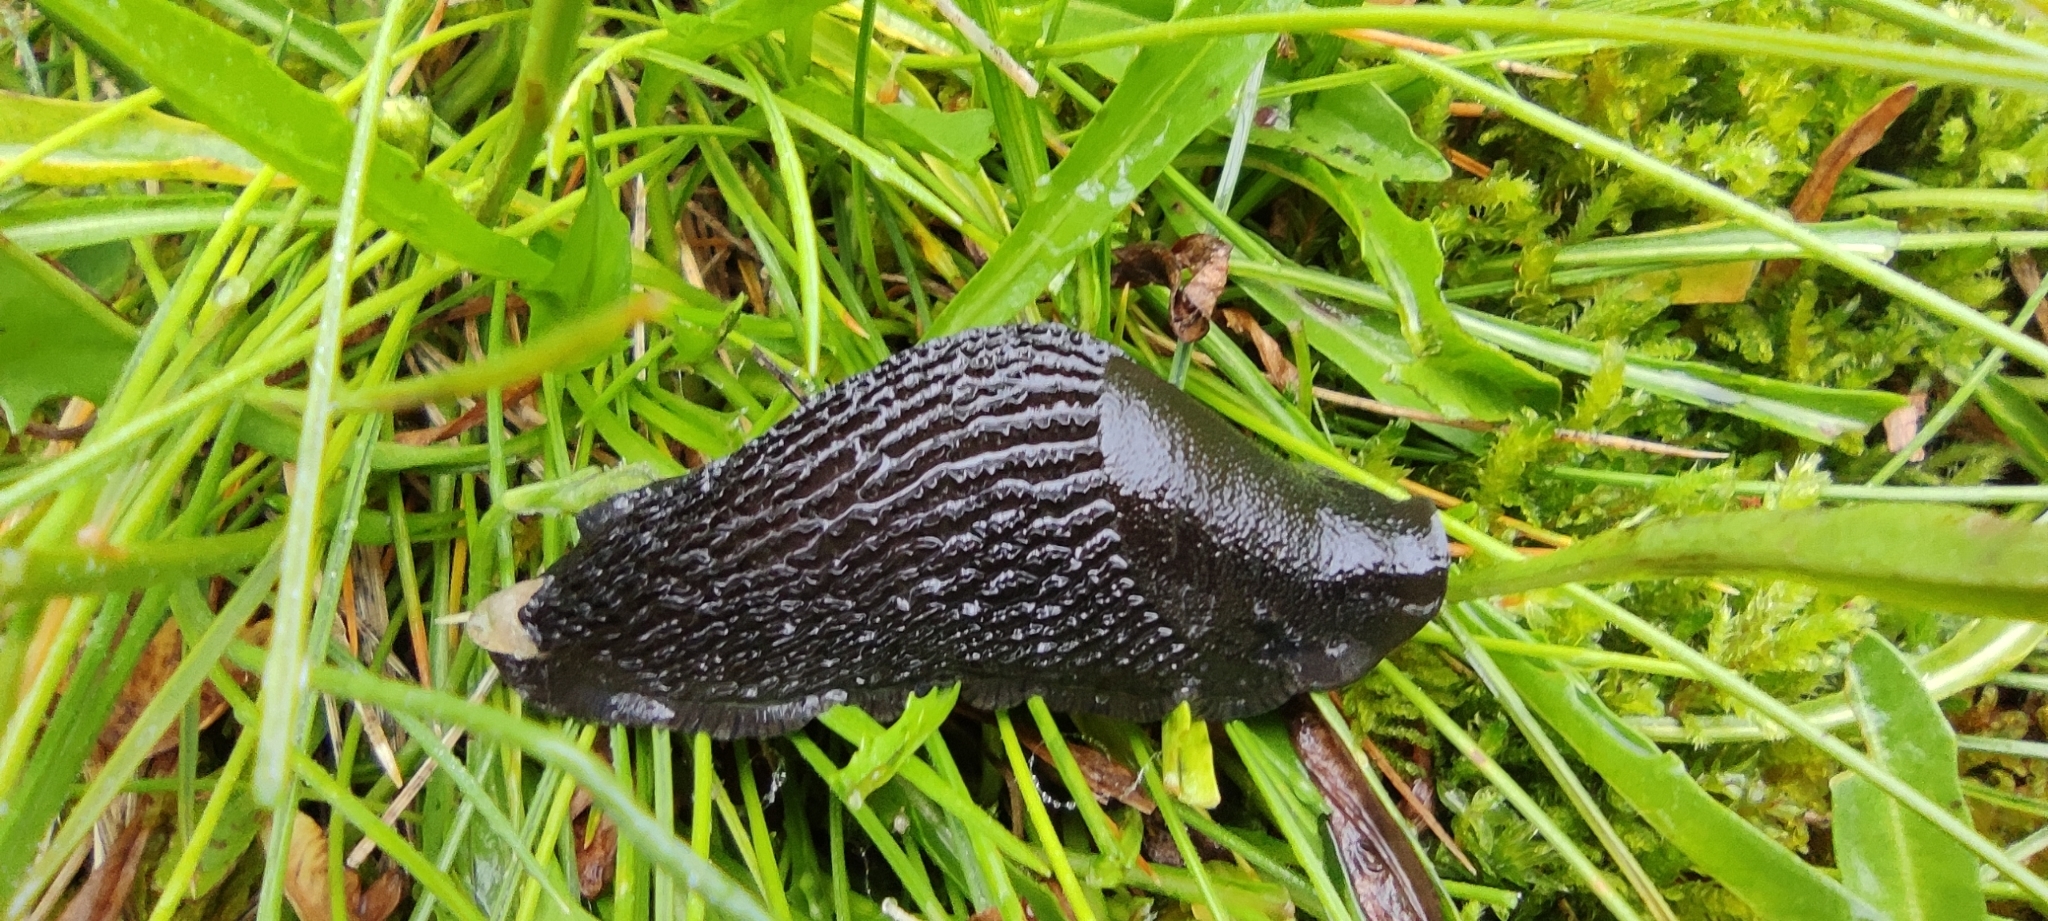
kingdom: Animalia
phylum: Mollusca
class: Gastropoda
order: Stylommatophora
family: Arionidae
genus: Arion
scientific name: Arion ater
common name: Black arion
